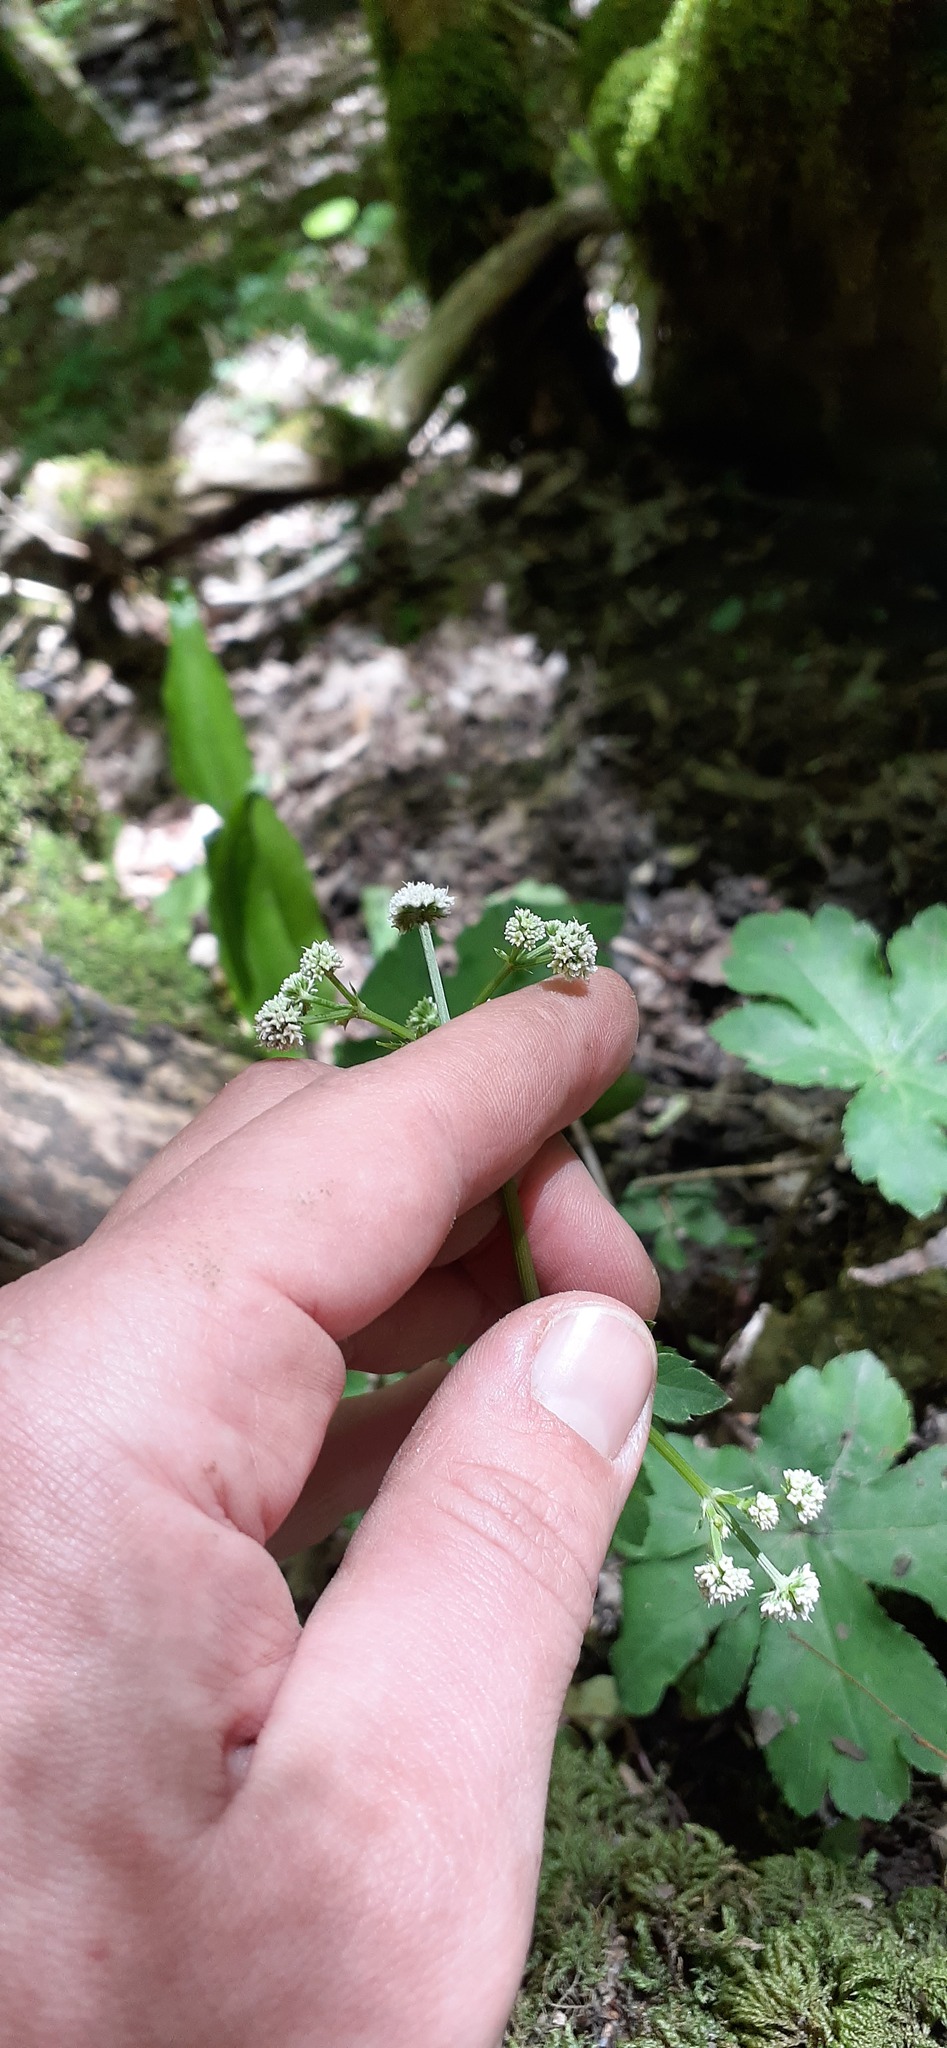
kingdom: Plantae
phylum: Tracheophyta
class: Magnoliopsida
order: Apiales
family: Apiaceae
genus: Sanicula
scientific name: Sanicula europaea
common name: Sanicle
